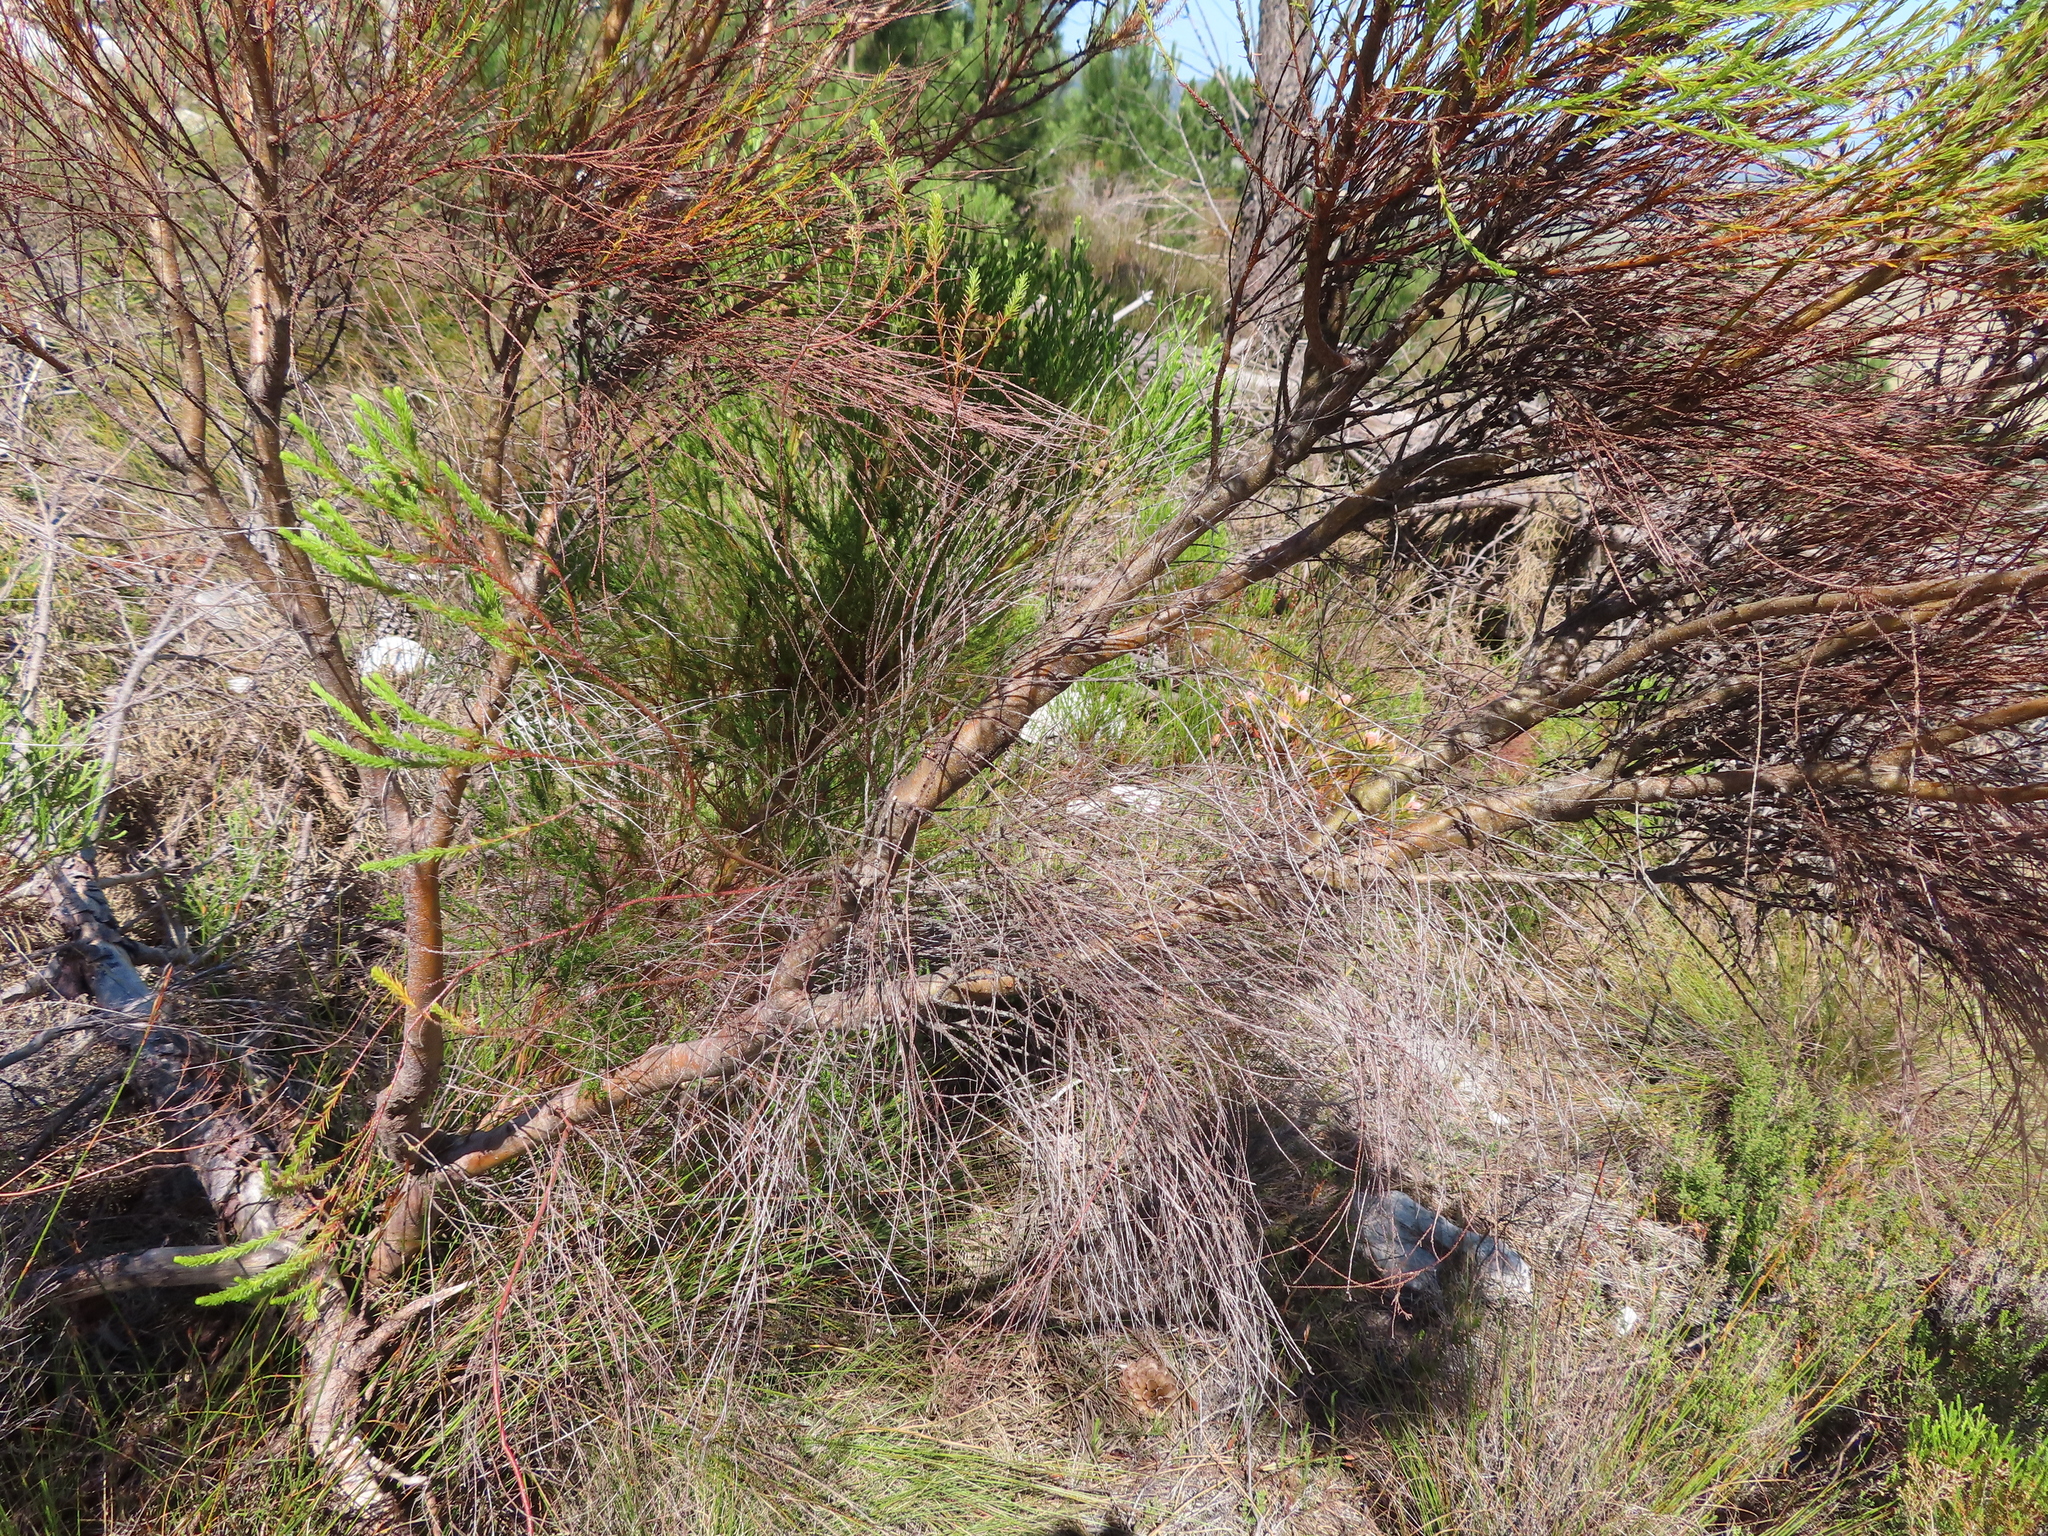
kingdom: Plantae
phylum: Tracheophyta
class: Magnoliopsida
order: Bruniales
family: Bruniaceae
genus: Berzelia
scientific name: Berzelia lanuginosa
